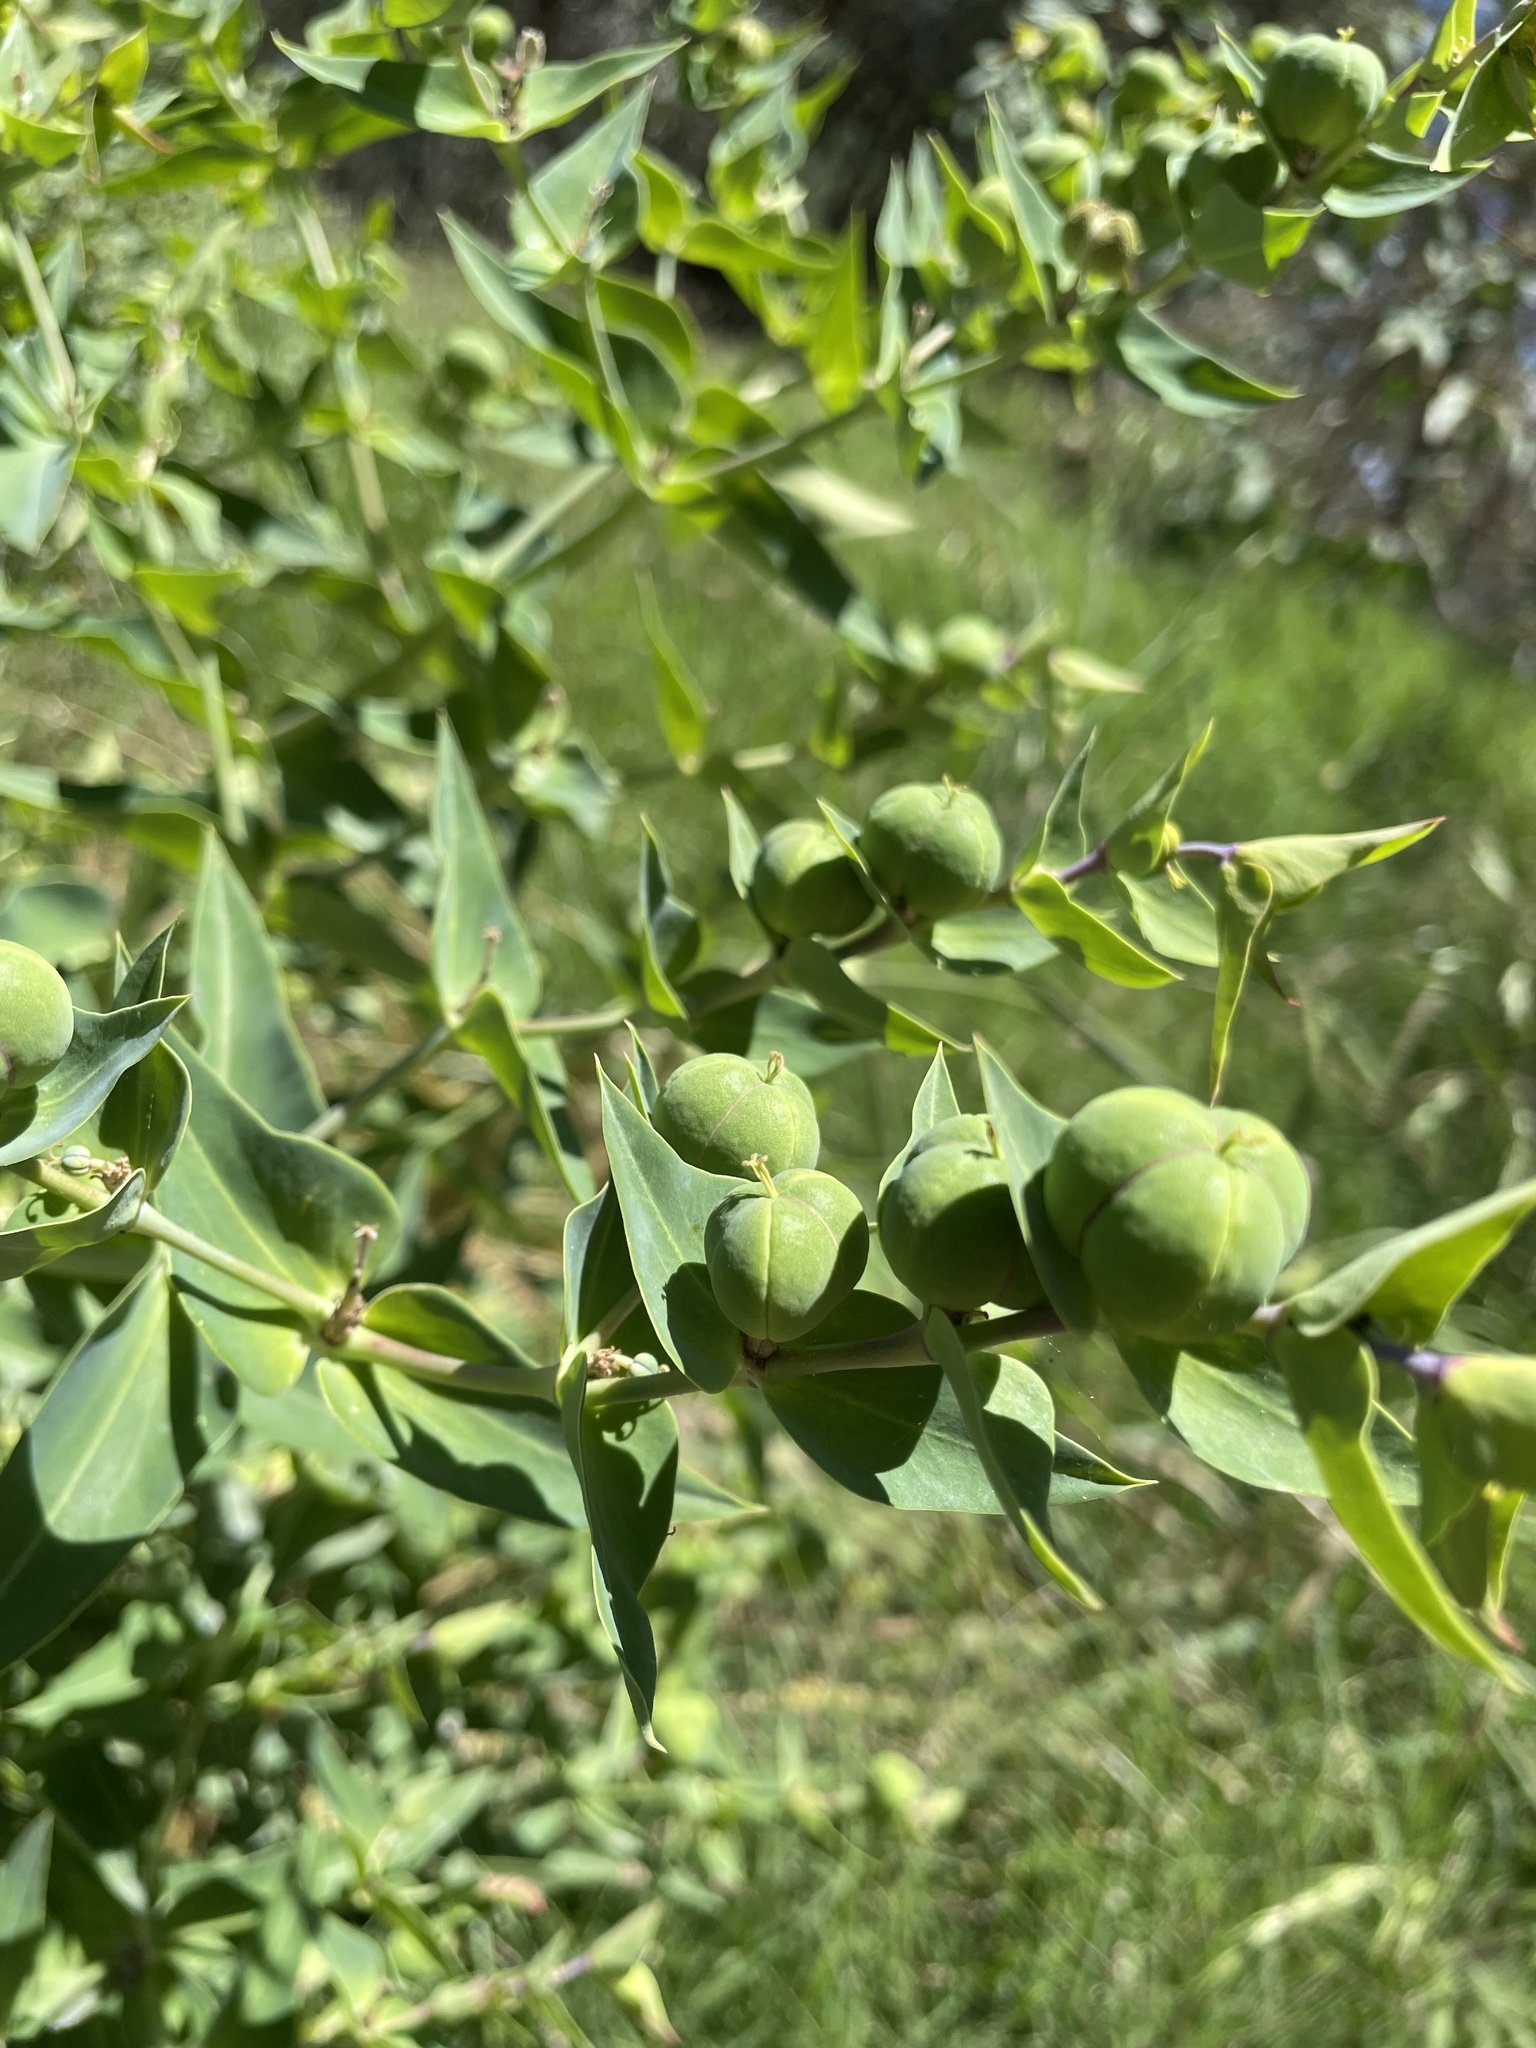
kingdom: Plantae
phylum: Tracheophyta
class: Magnoliopsida
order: Malpighiales
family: Euphorbiaceae
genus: Euphorbia
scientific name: Euphorbia lathyris
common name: Caper spurge
